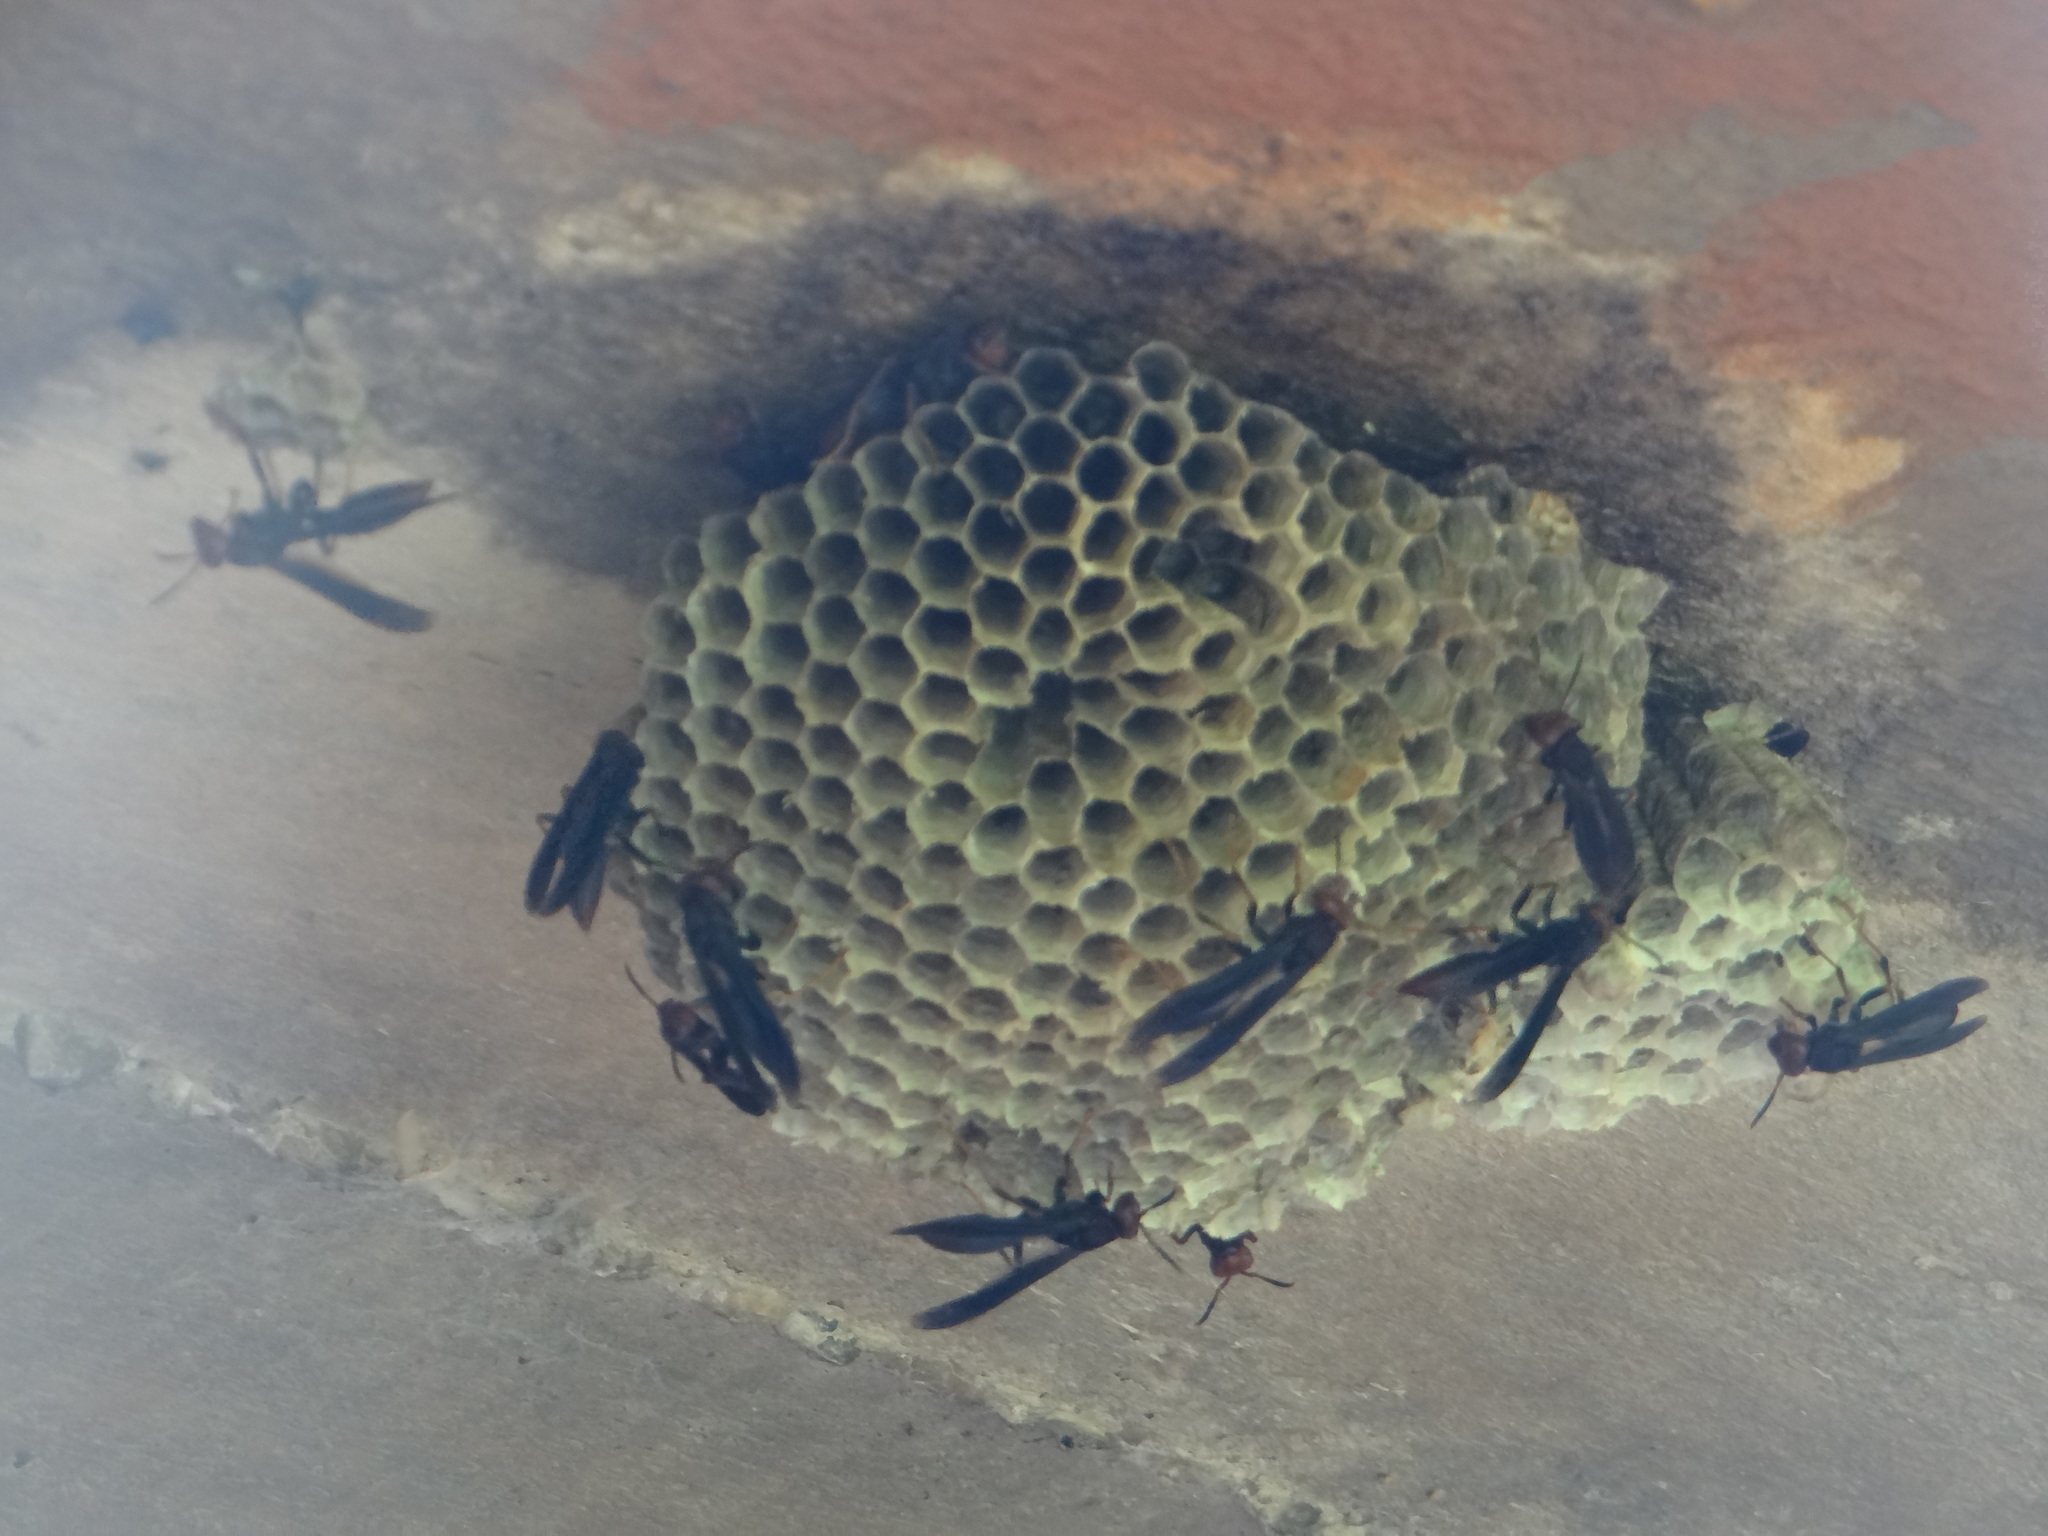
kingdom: Animalia
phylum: Arthropoda
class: Insecta
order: Hymenoptera
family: Eumenidae
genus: Polistes
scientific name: Polistes erythrocephalus
